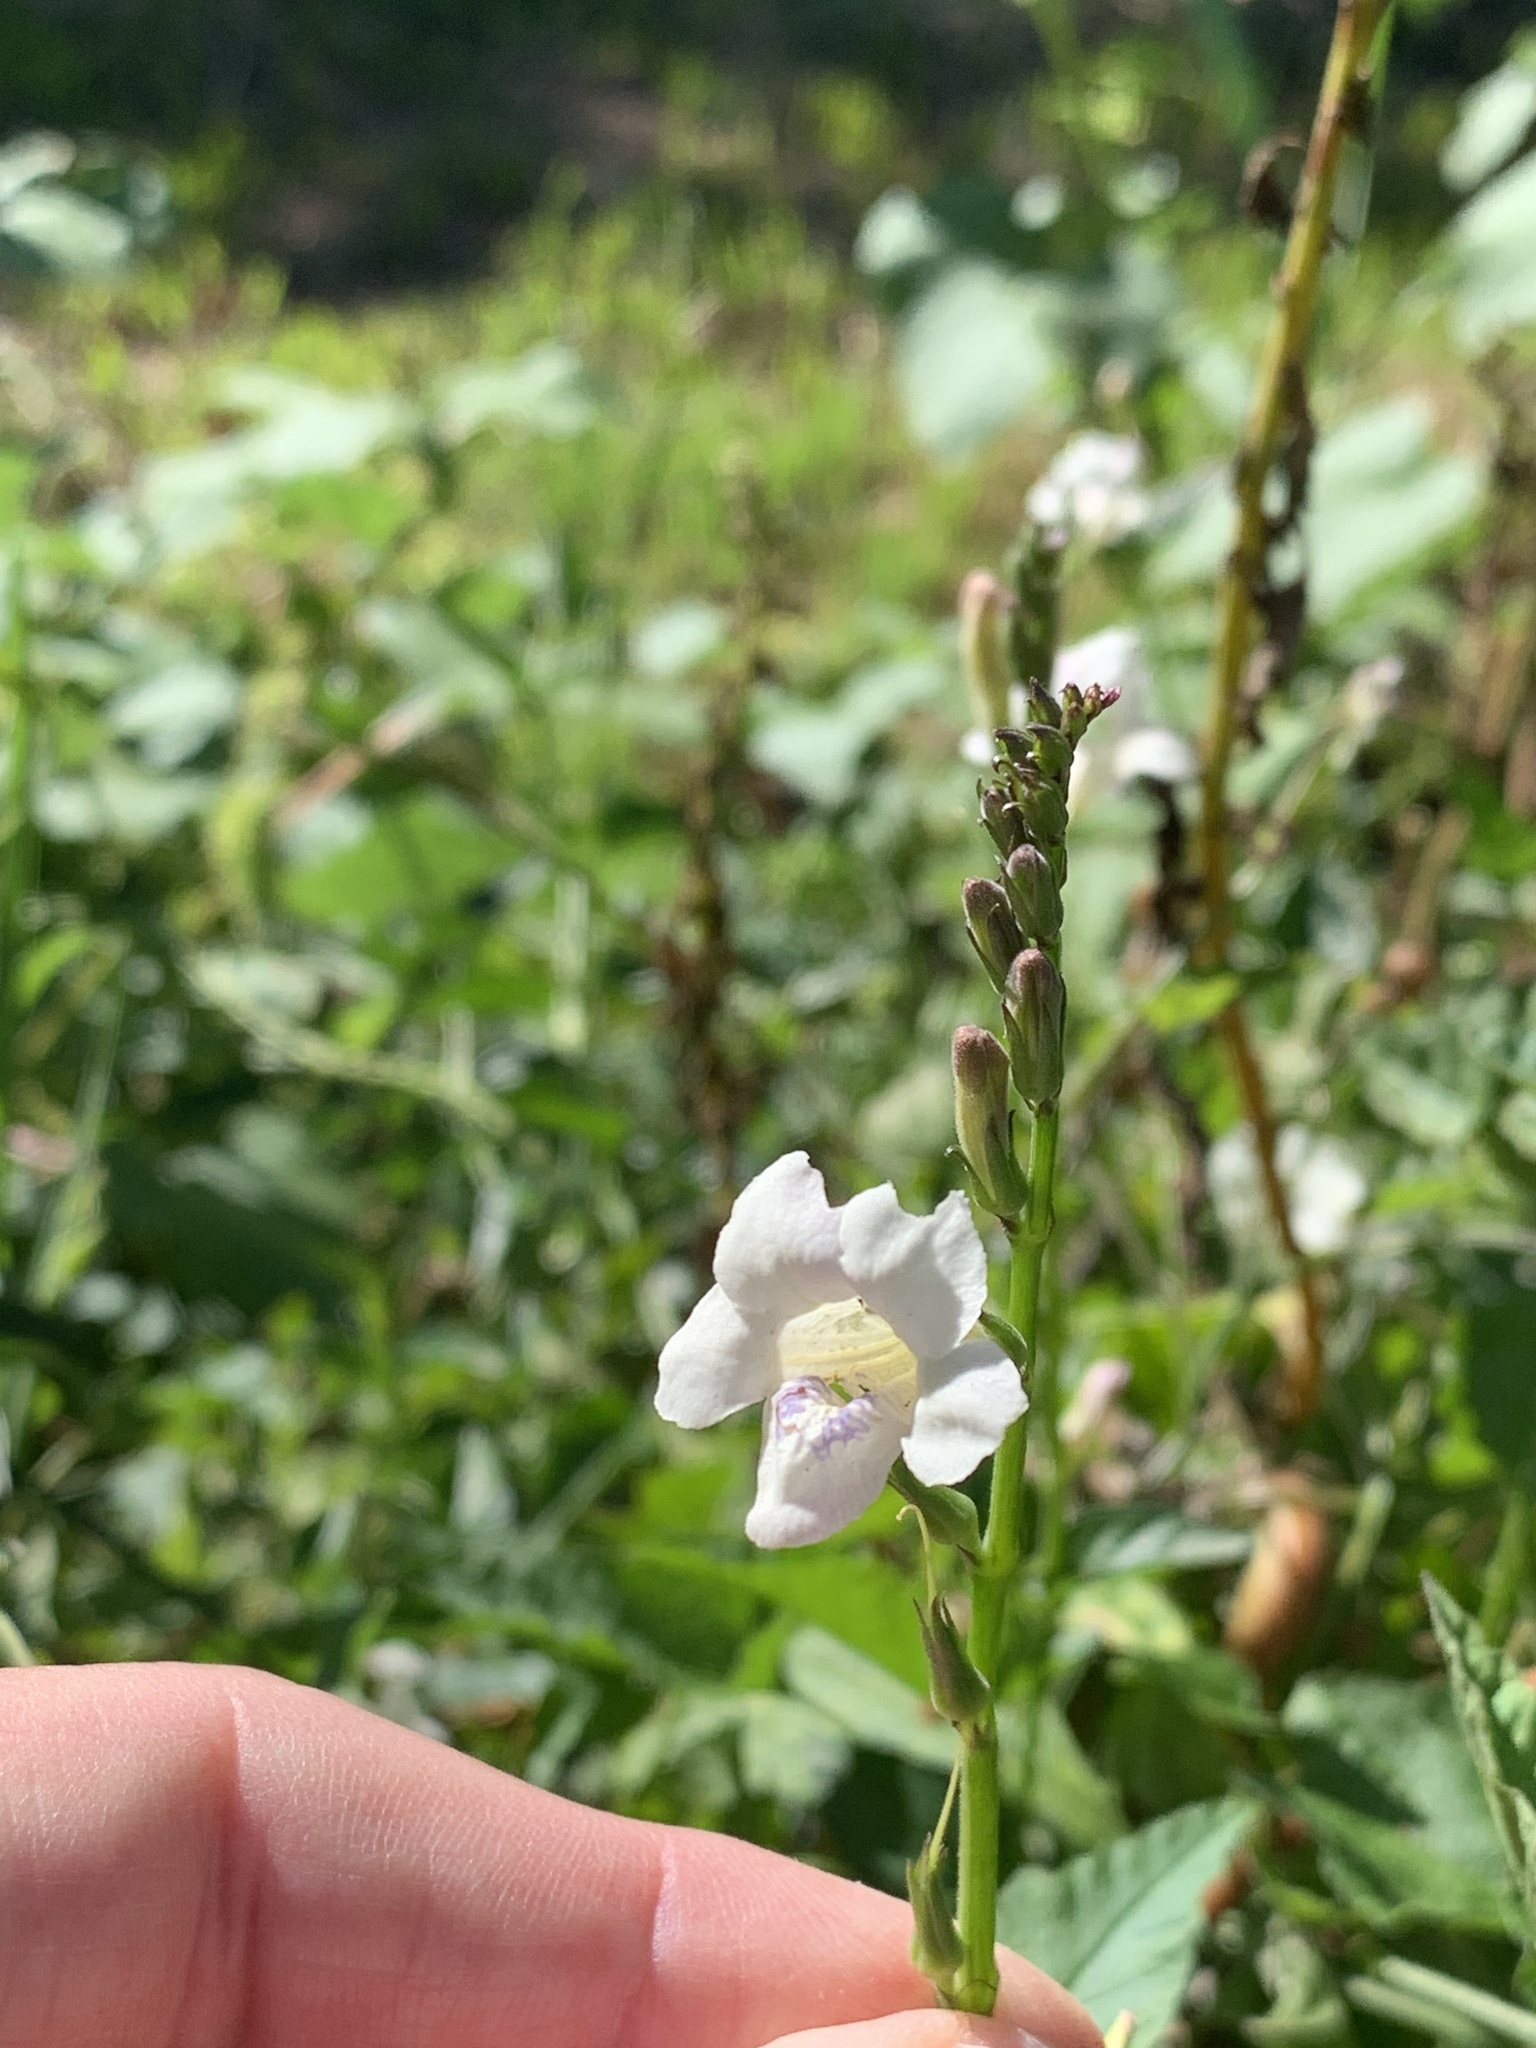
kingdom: Plantae
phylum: Tracheophyta
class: Magnoliopsida
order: Lamiales
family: Acanthaceae
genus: Asystasia
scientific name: Asystasia intrusa
